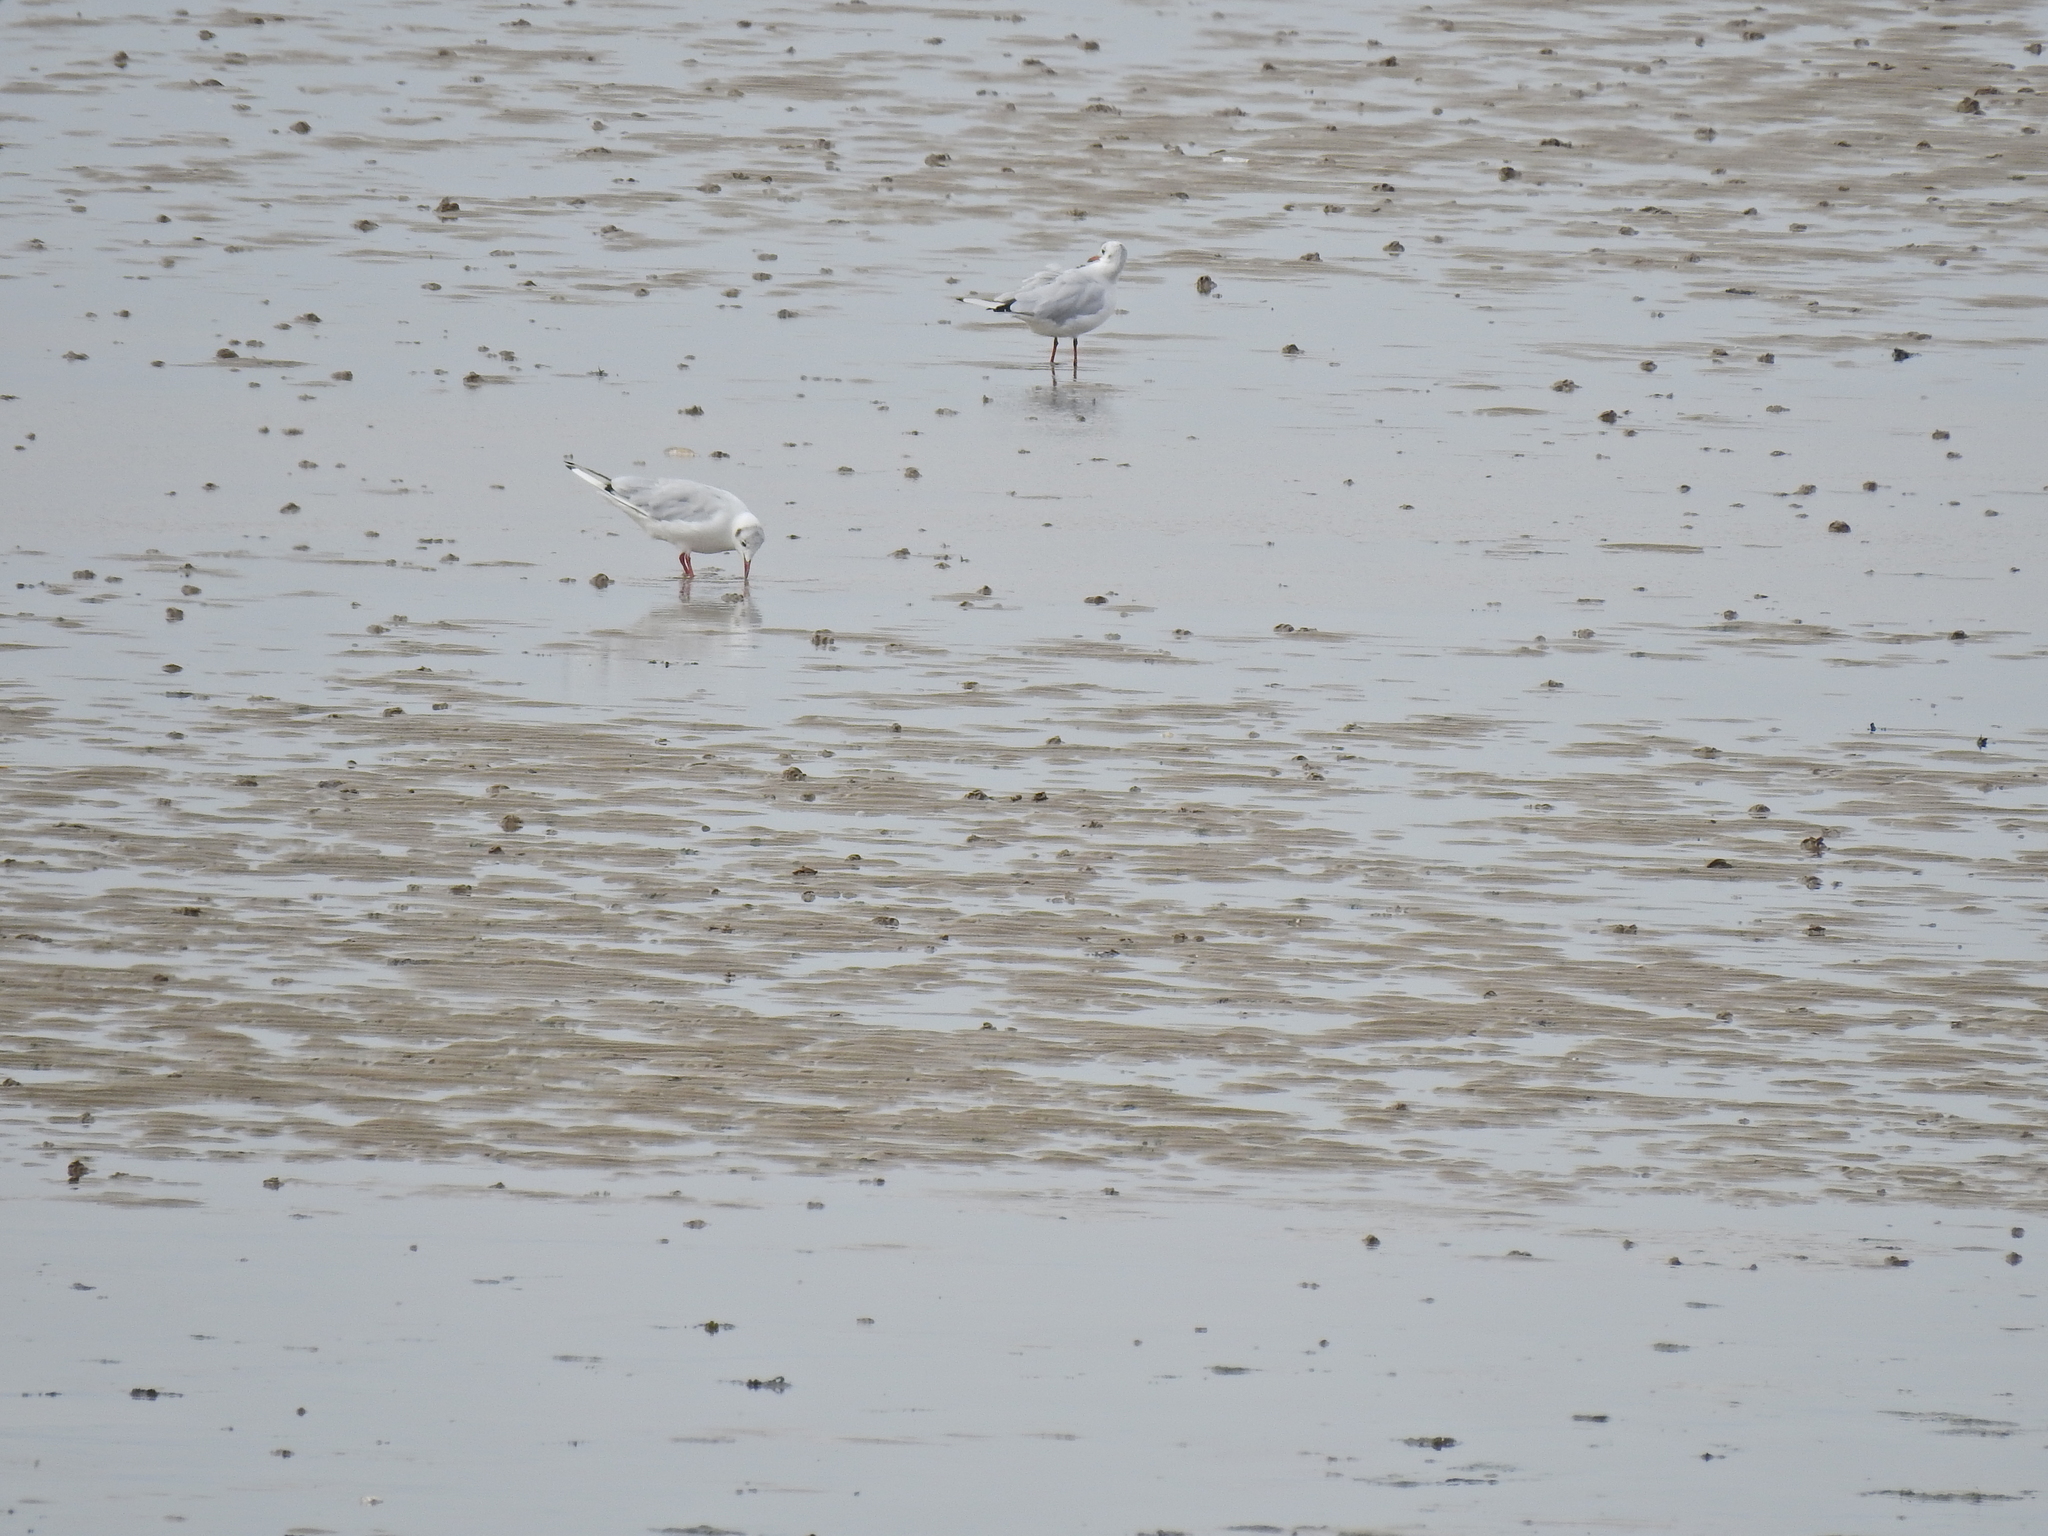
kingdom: Animalia
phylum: Chordata
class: Aves
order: Charadriiformes
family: Laridae
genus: Chroicocephalus
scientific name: Chroicocephalus ridibundus
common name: Black-headed gull
